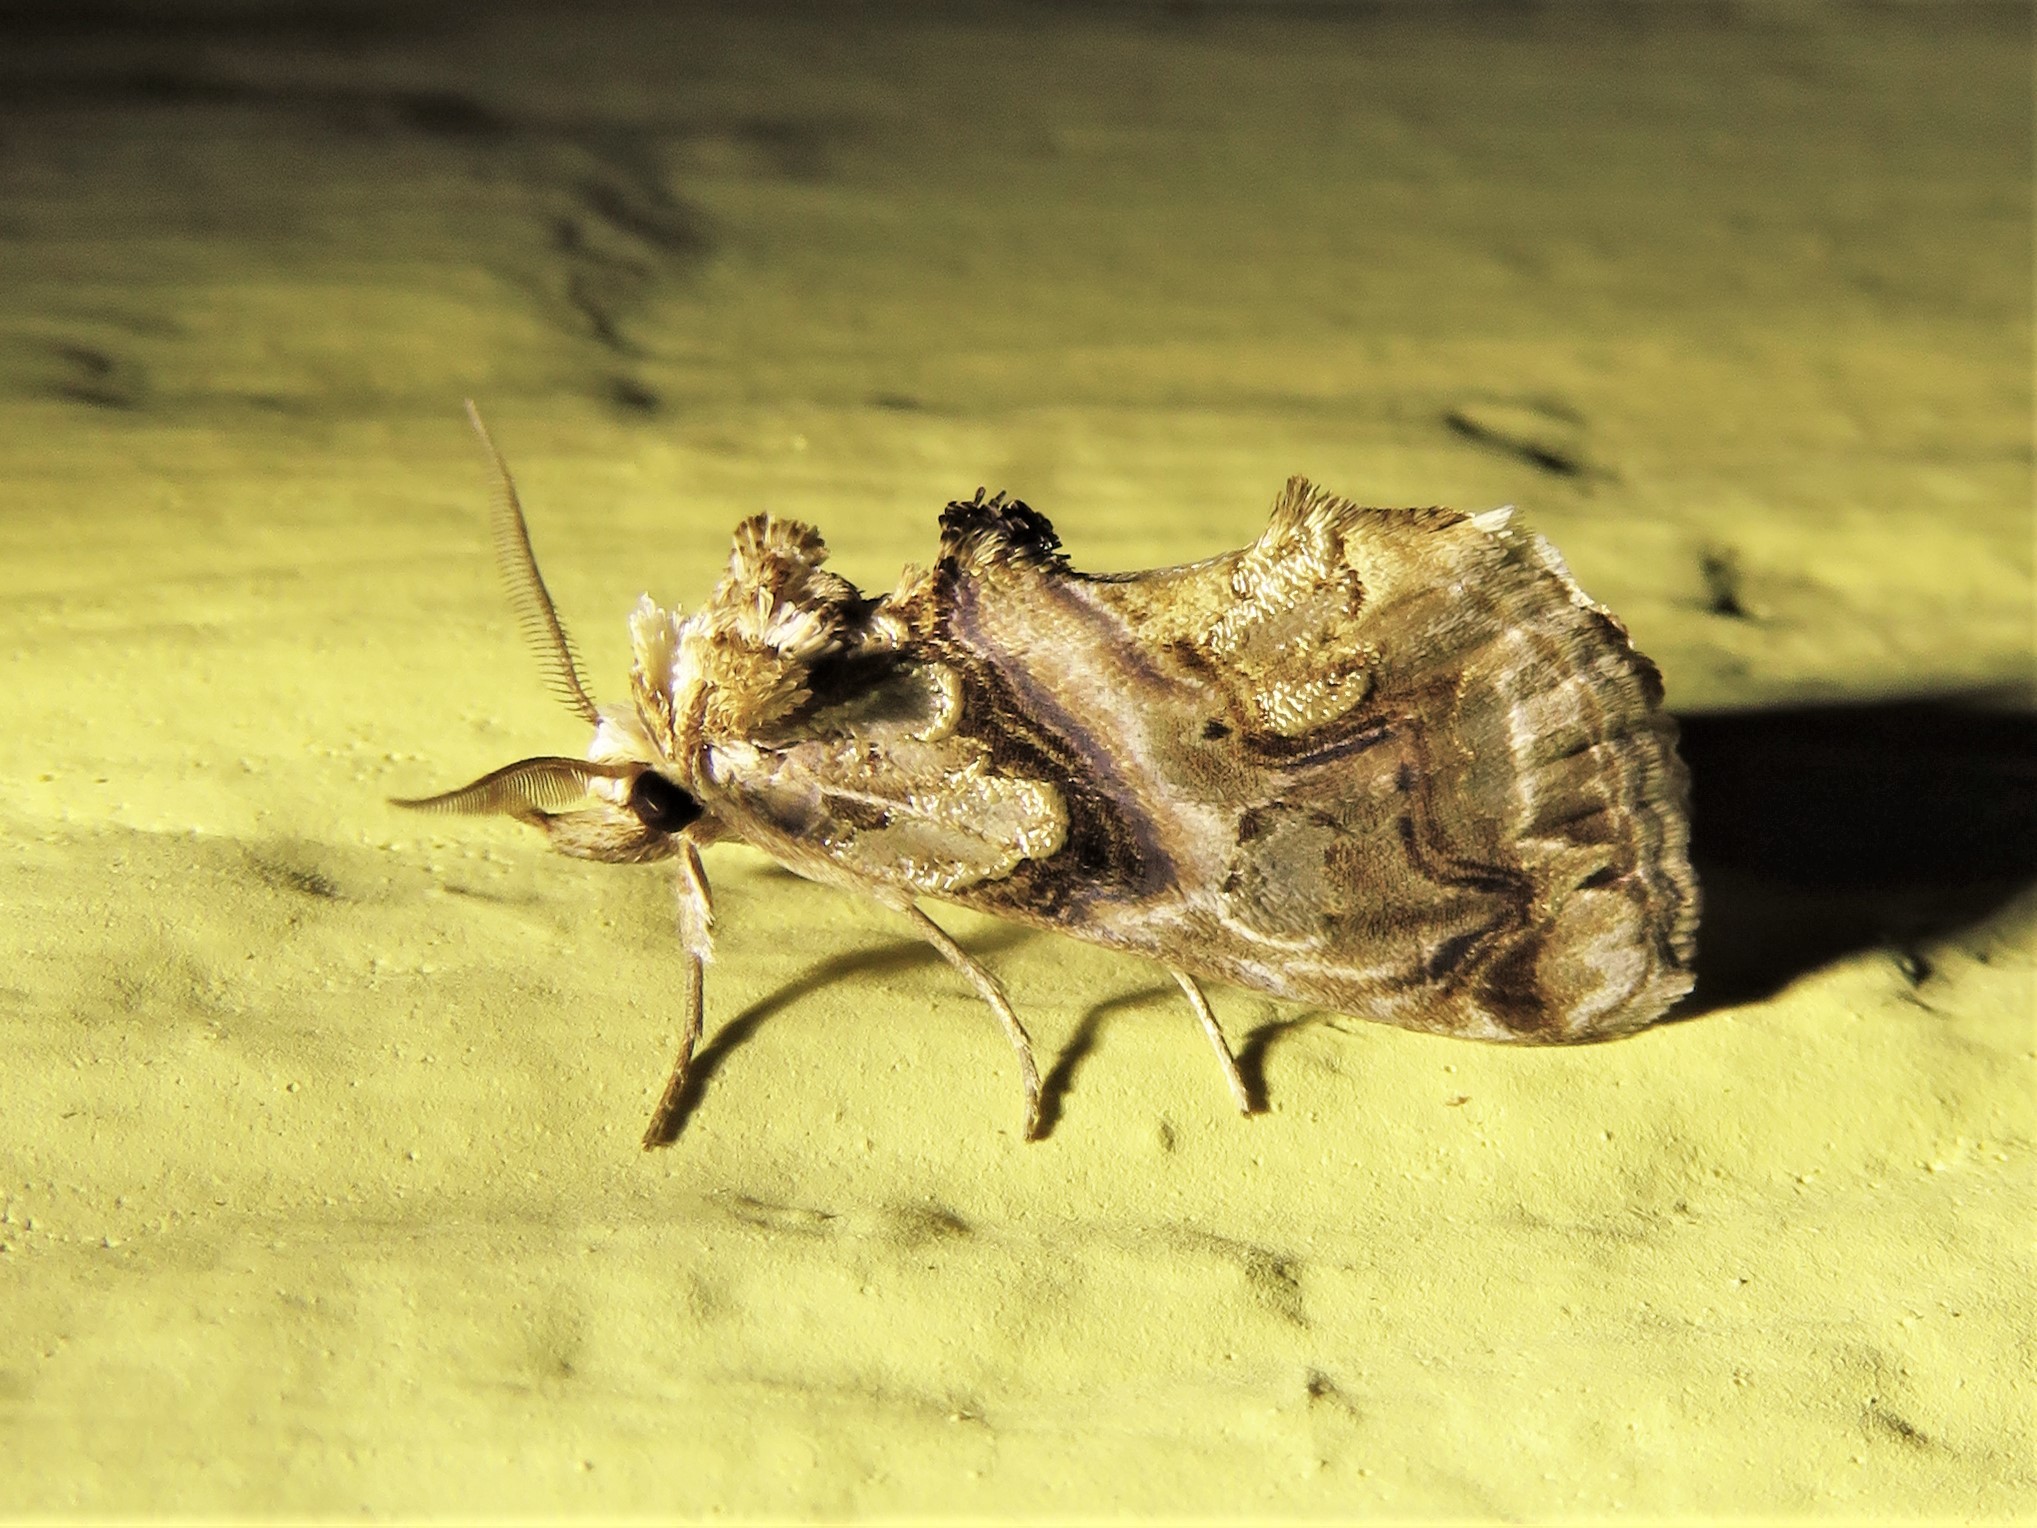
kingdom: Animalia
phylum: Arthropoda
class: Insecta
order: Lepidoptera
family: Erebidae
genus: Plusiodonta
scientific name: Plusiodonta compressipalpis
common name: Moonseed moth
